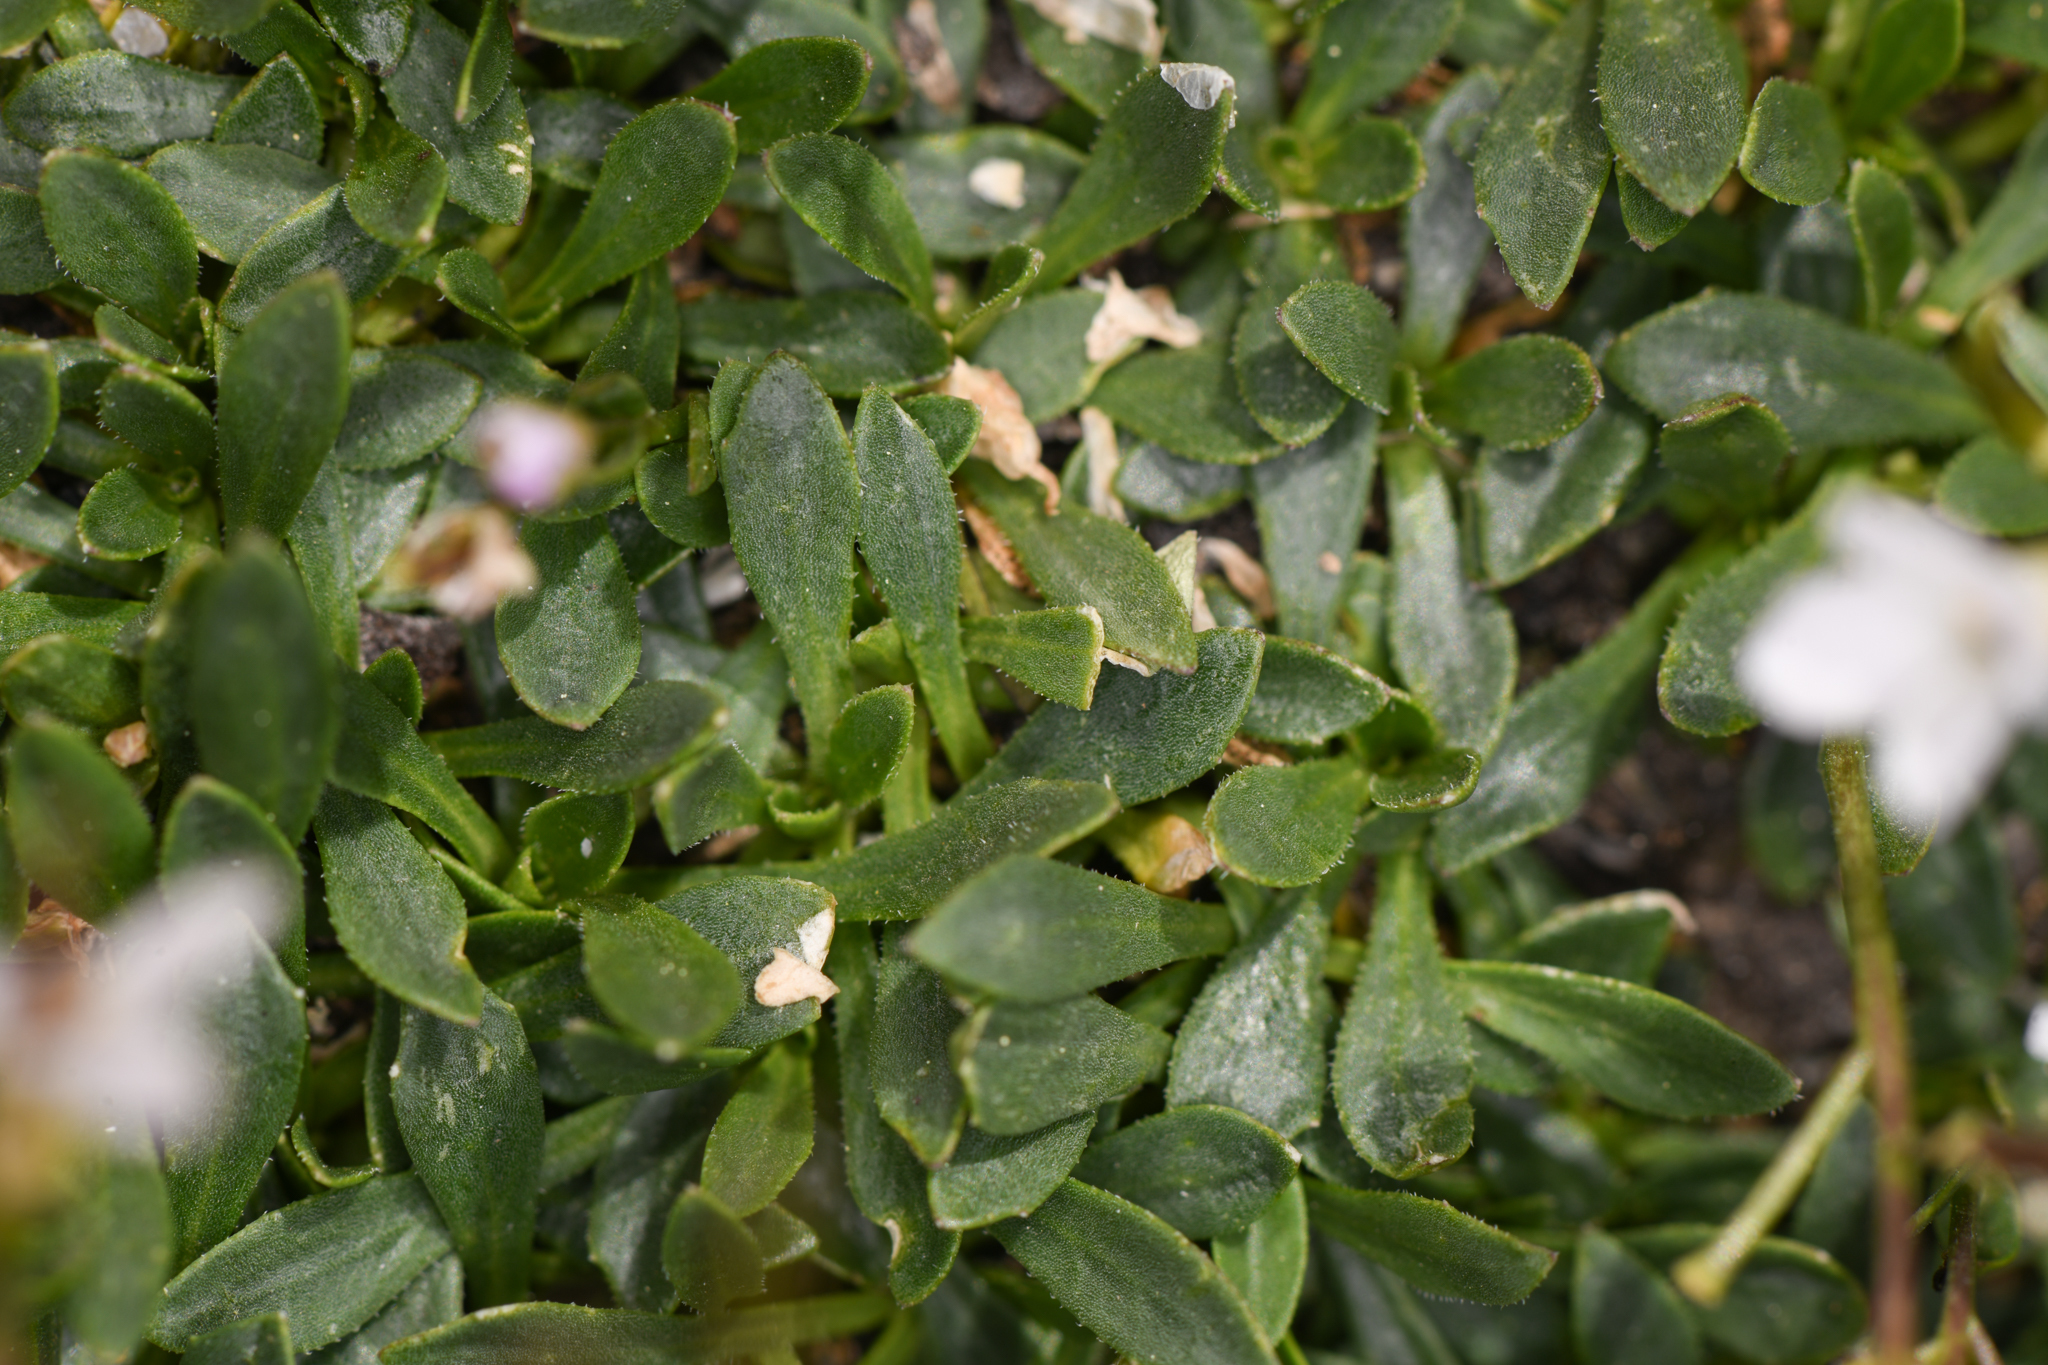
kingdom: Plantae
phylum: Tracheophyta
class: Magnoliopsida
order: Brassicales
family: Brassicaceae
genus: Boechera
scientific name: Boechera shevockii
